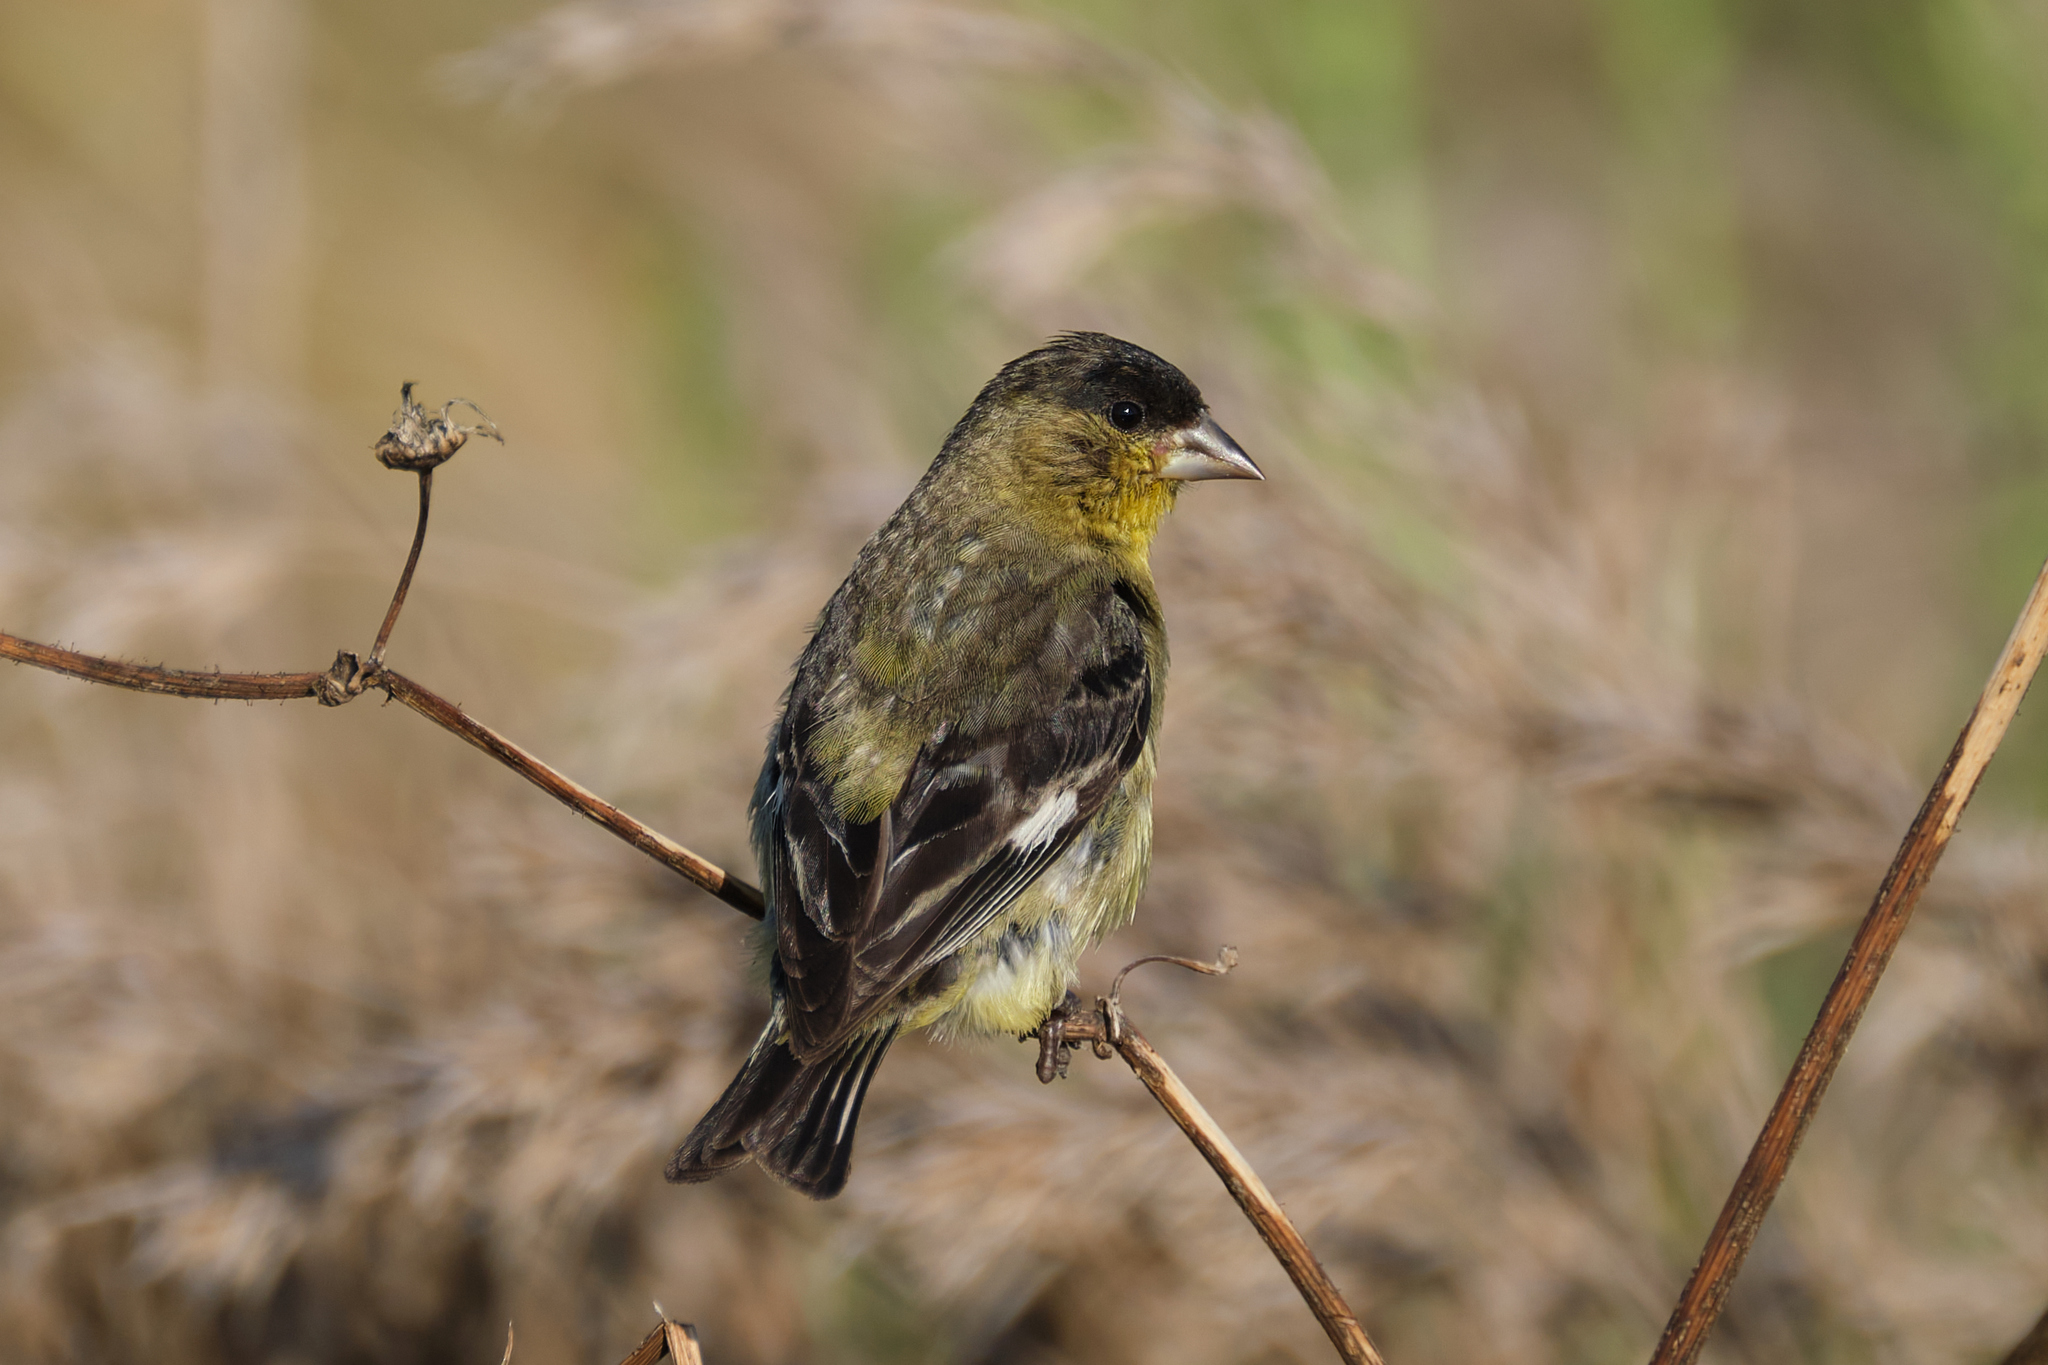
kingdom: Animalia
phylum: Chordata
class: Aves
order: Passeriformes
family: Fringillidae
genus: Spinus
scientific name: Spinus psaltria
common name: Lesser goldfinch
